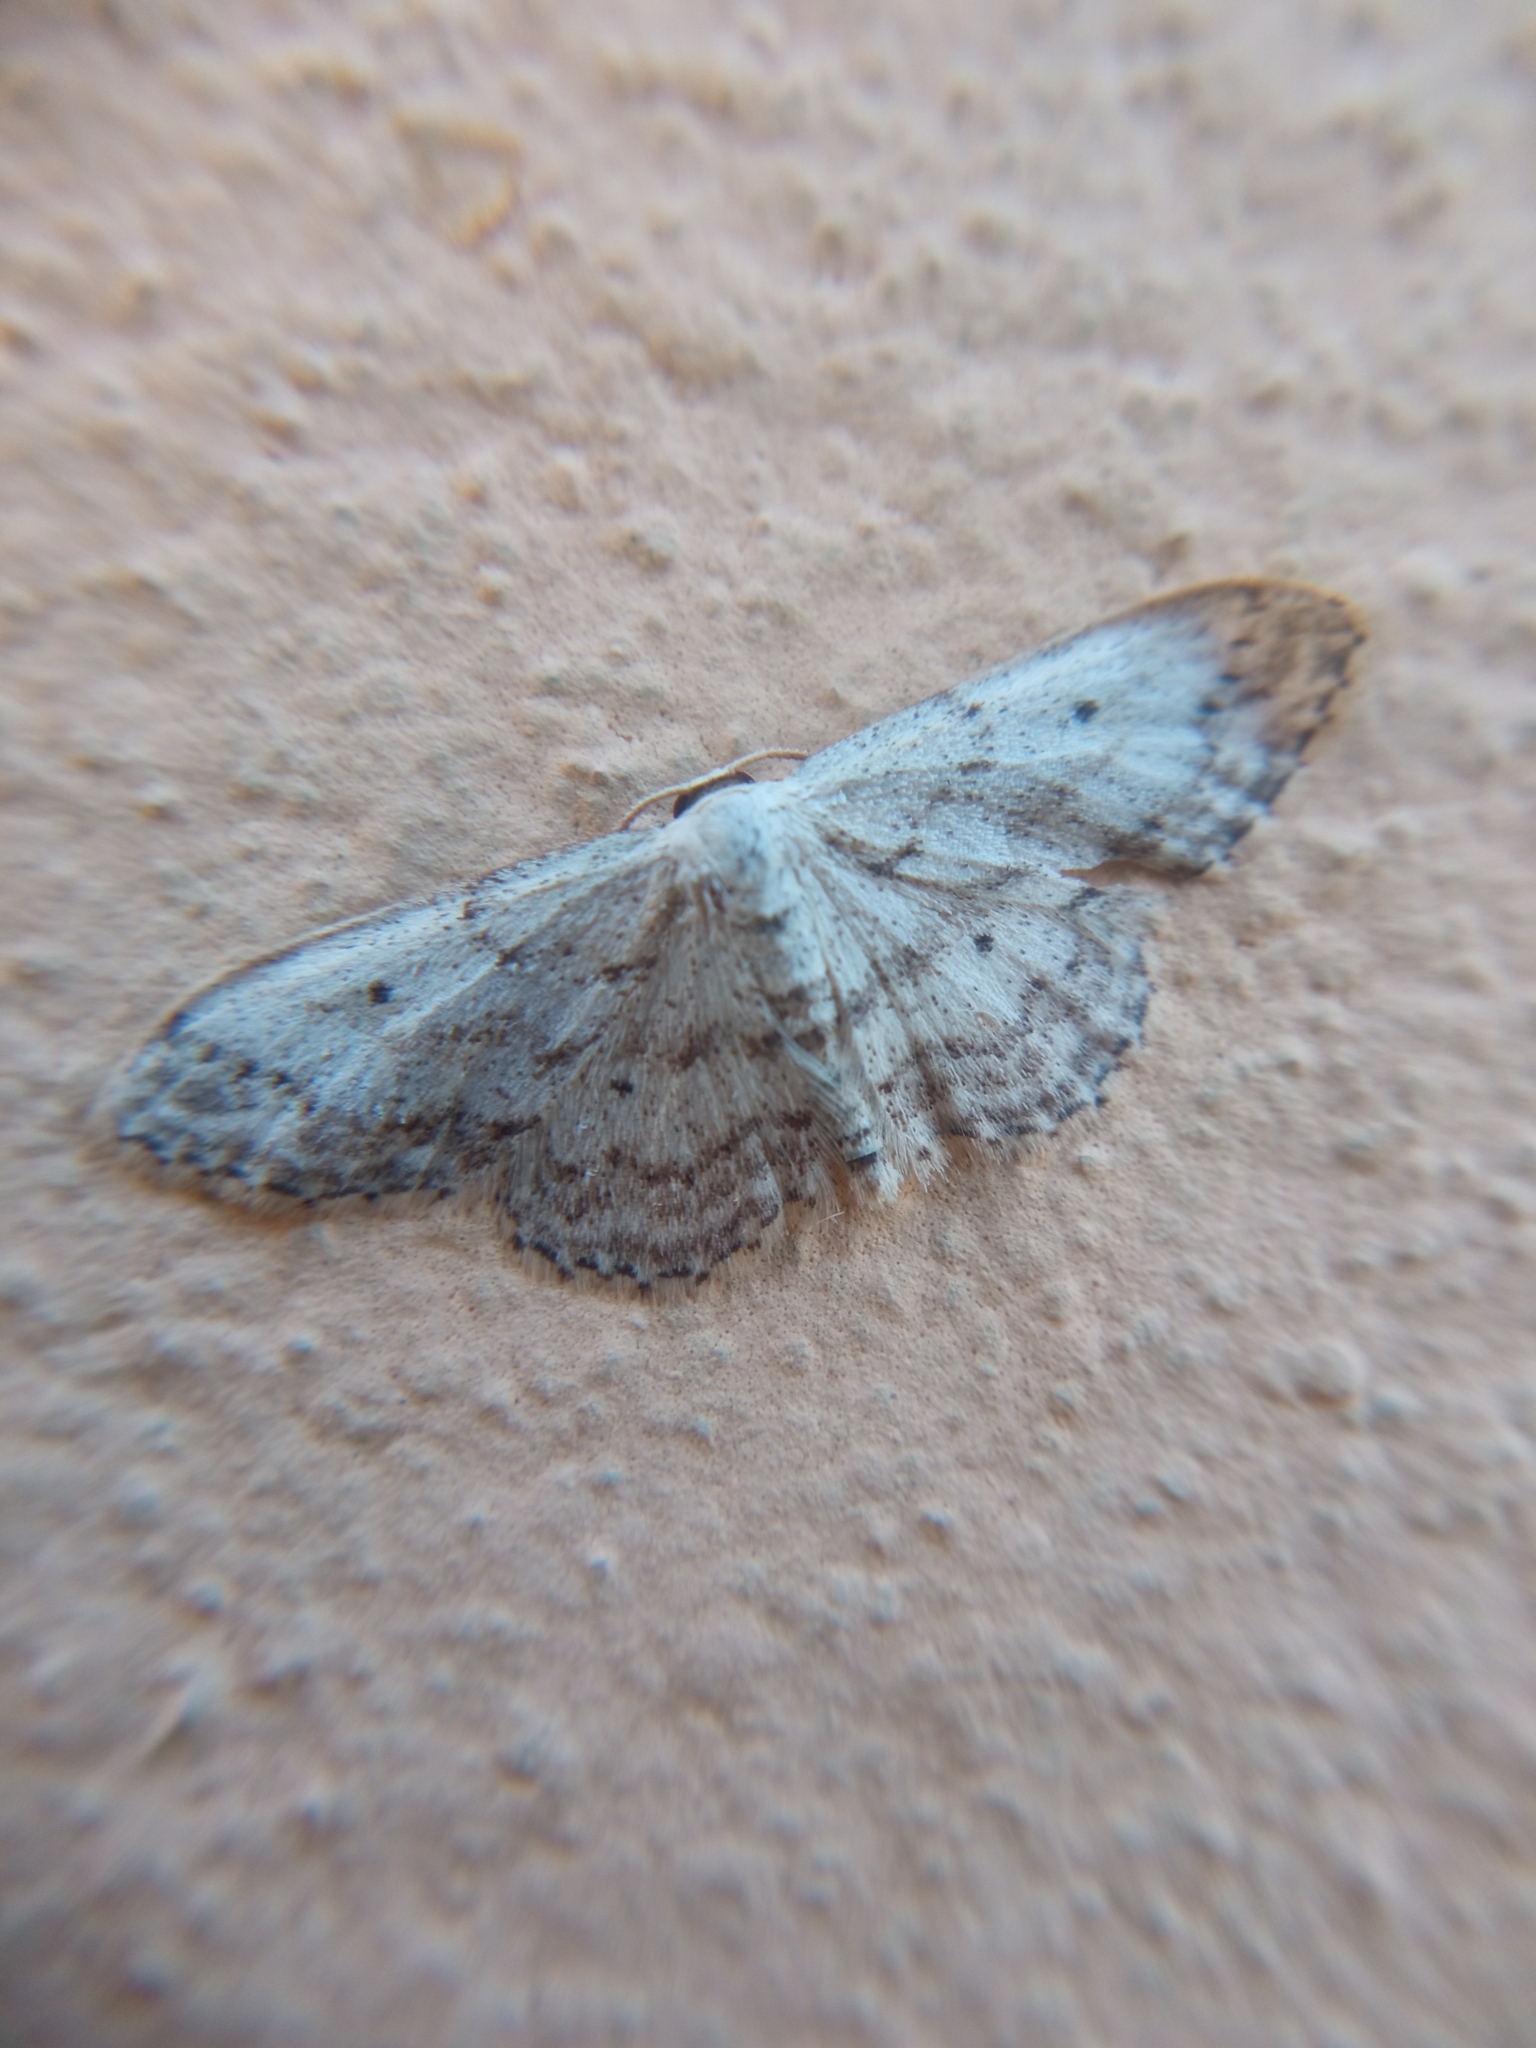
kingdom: Animalia
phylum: Arthropoda
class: Insecta
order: Lepidoptera
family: Geometridae
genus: Idaea
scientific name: Idaea seriata
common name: Small dusty wave
